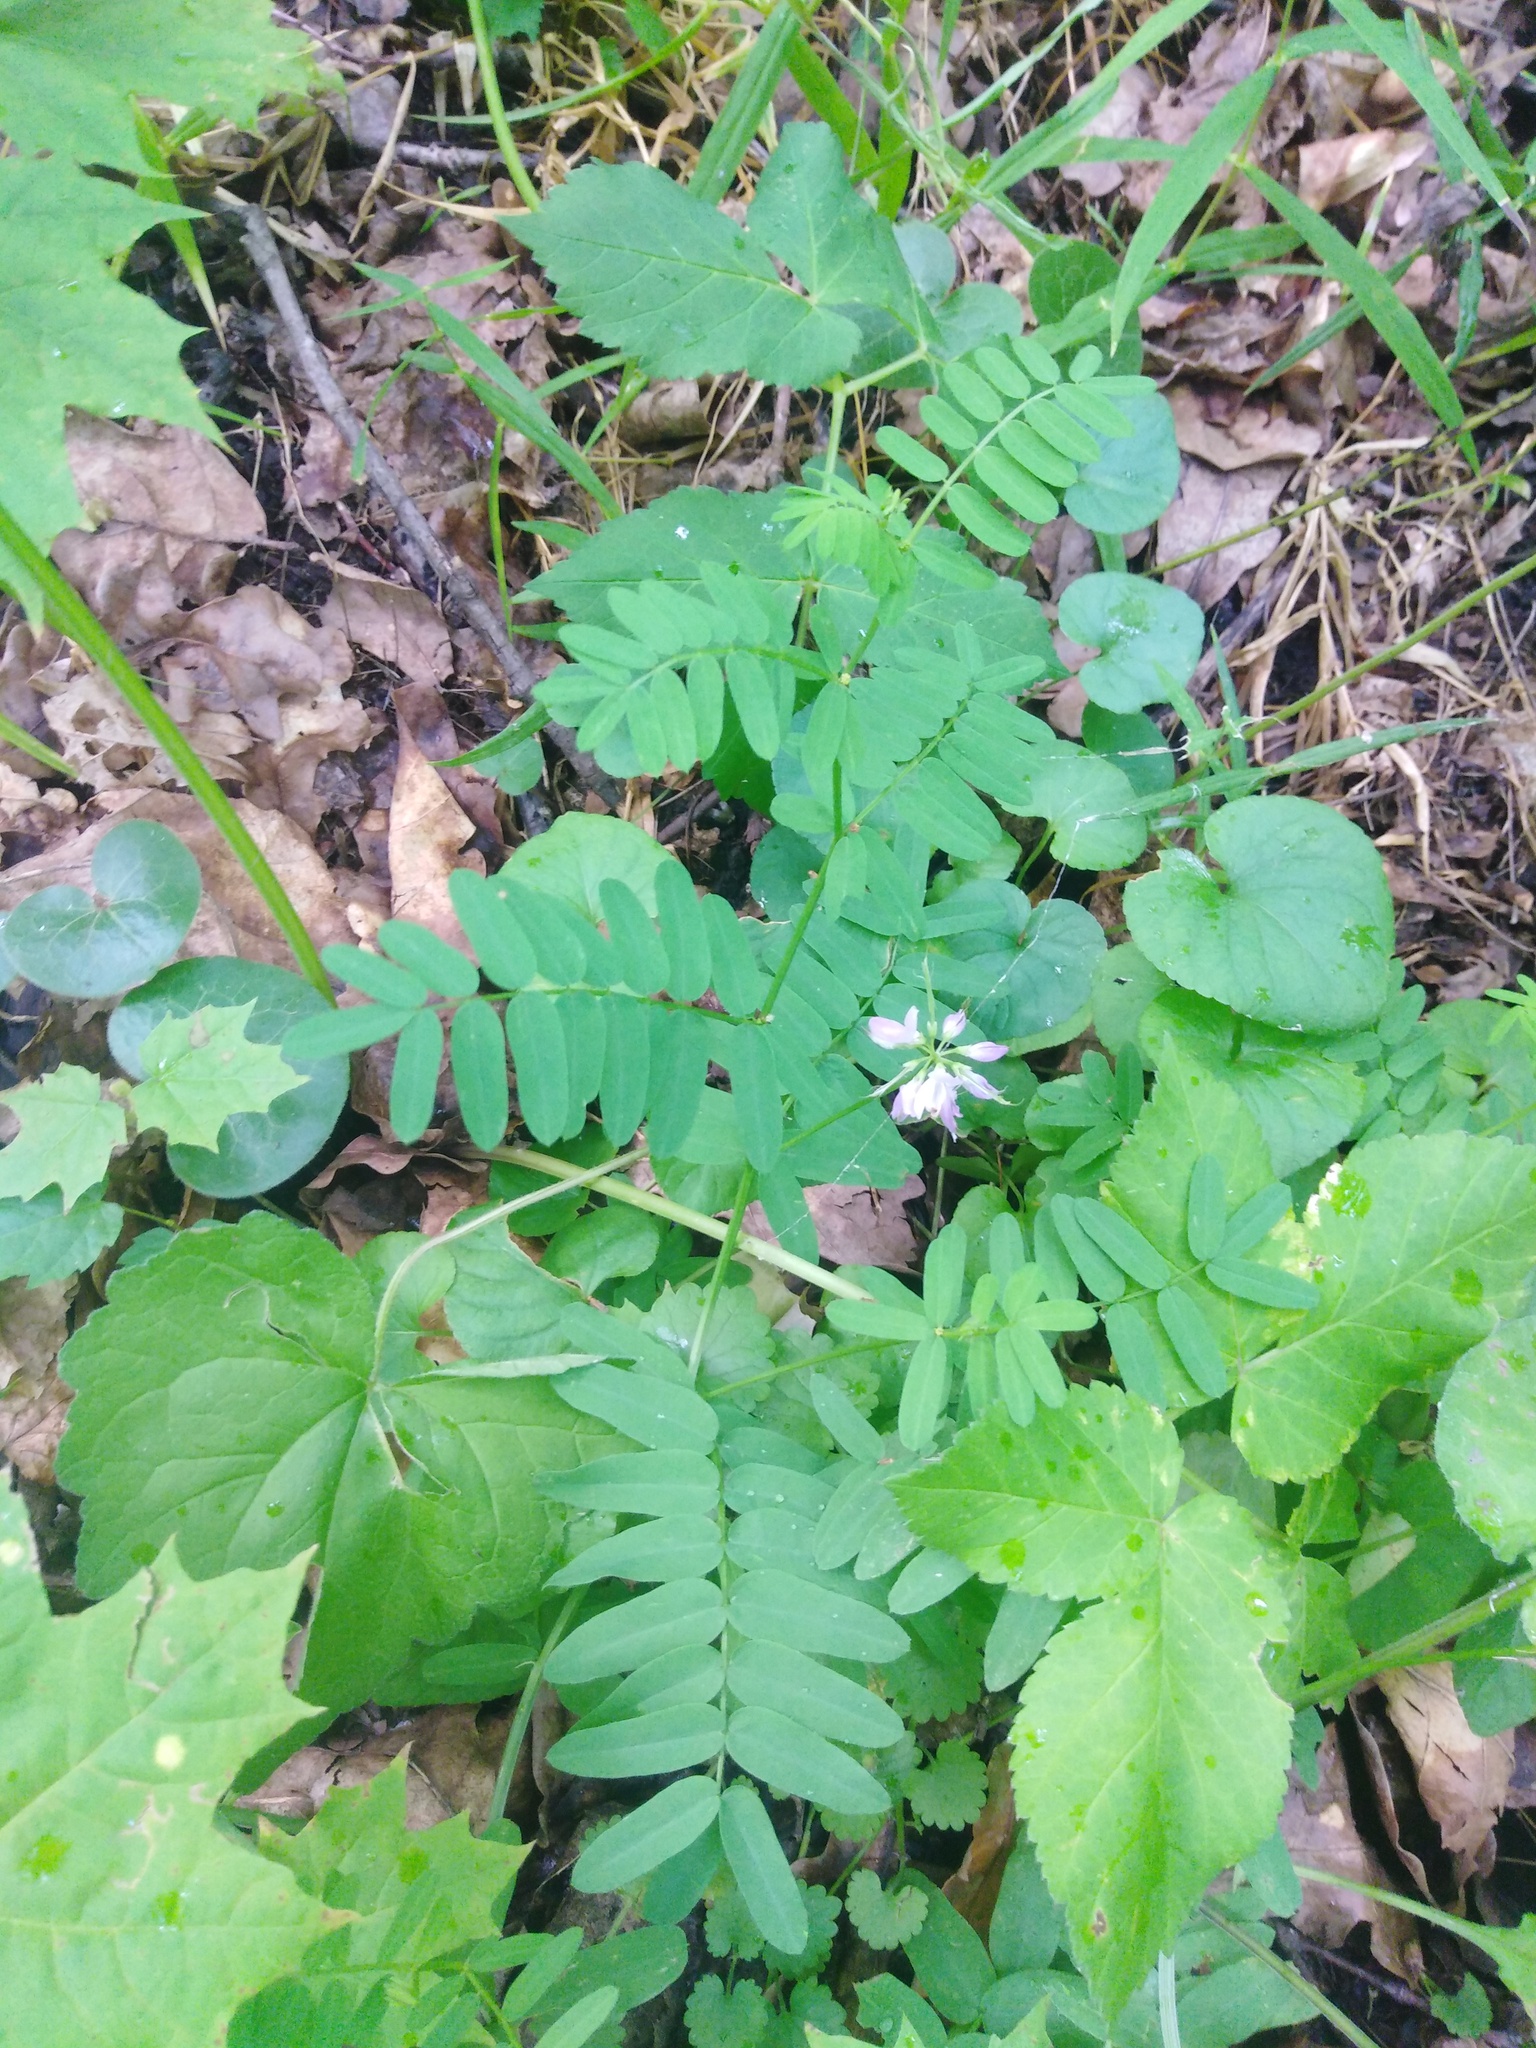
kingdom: Plantae
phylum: Tracheophyta
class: Magnoliopsida
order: Fabales
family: Fabaceae
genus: Coronilla
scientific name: Coronilla varia
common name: Crownvetch
